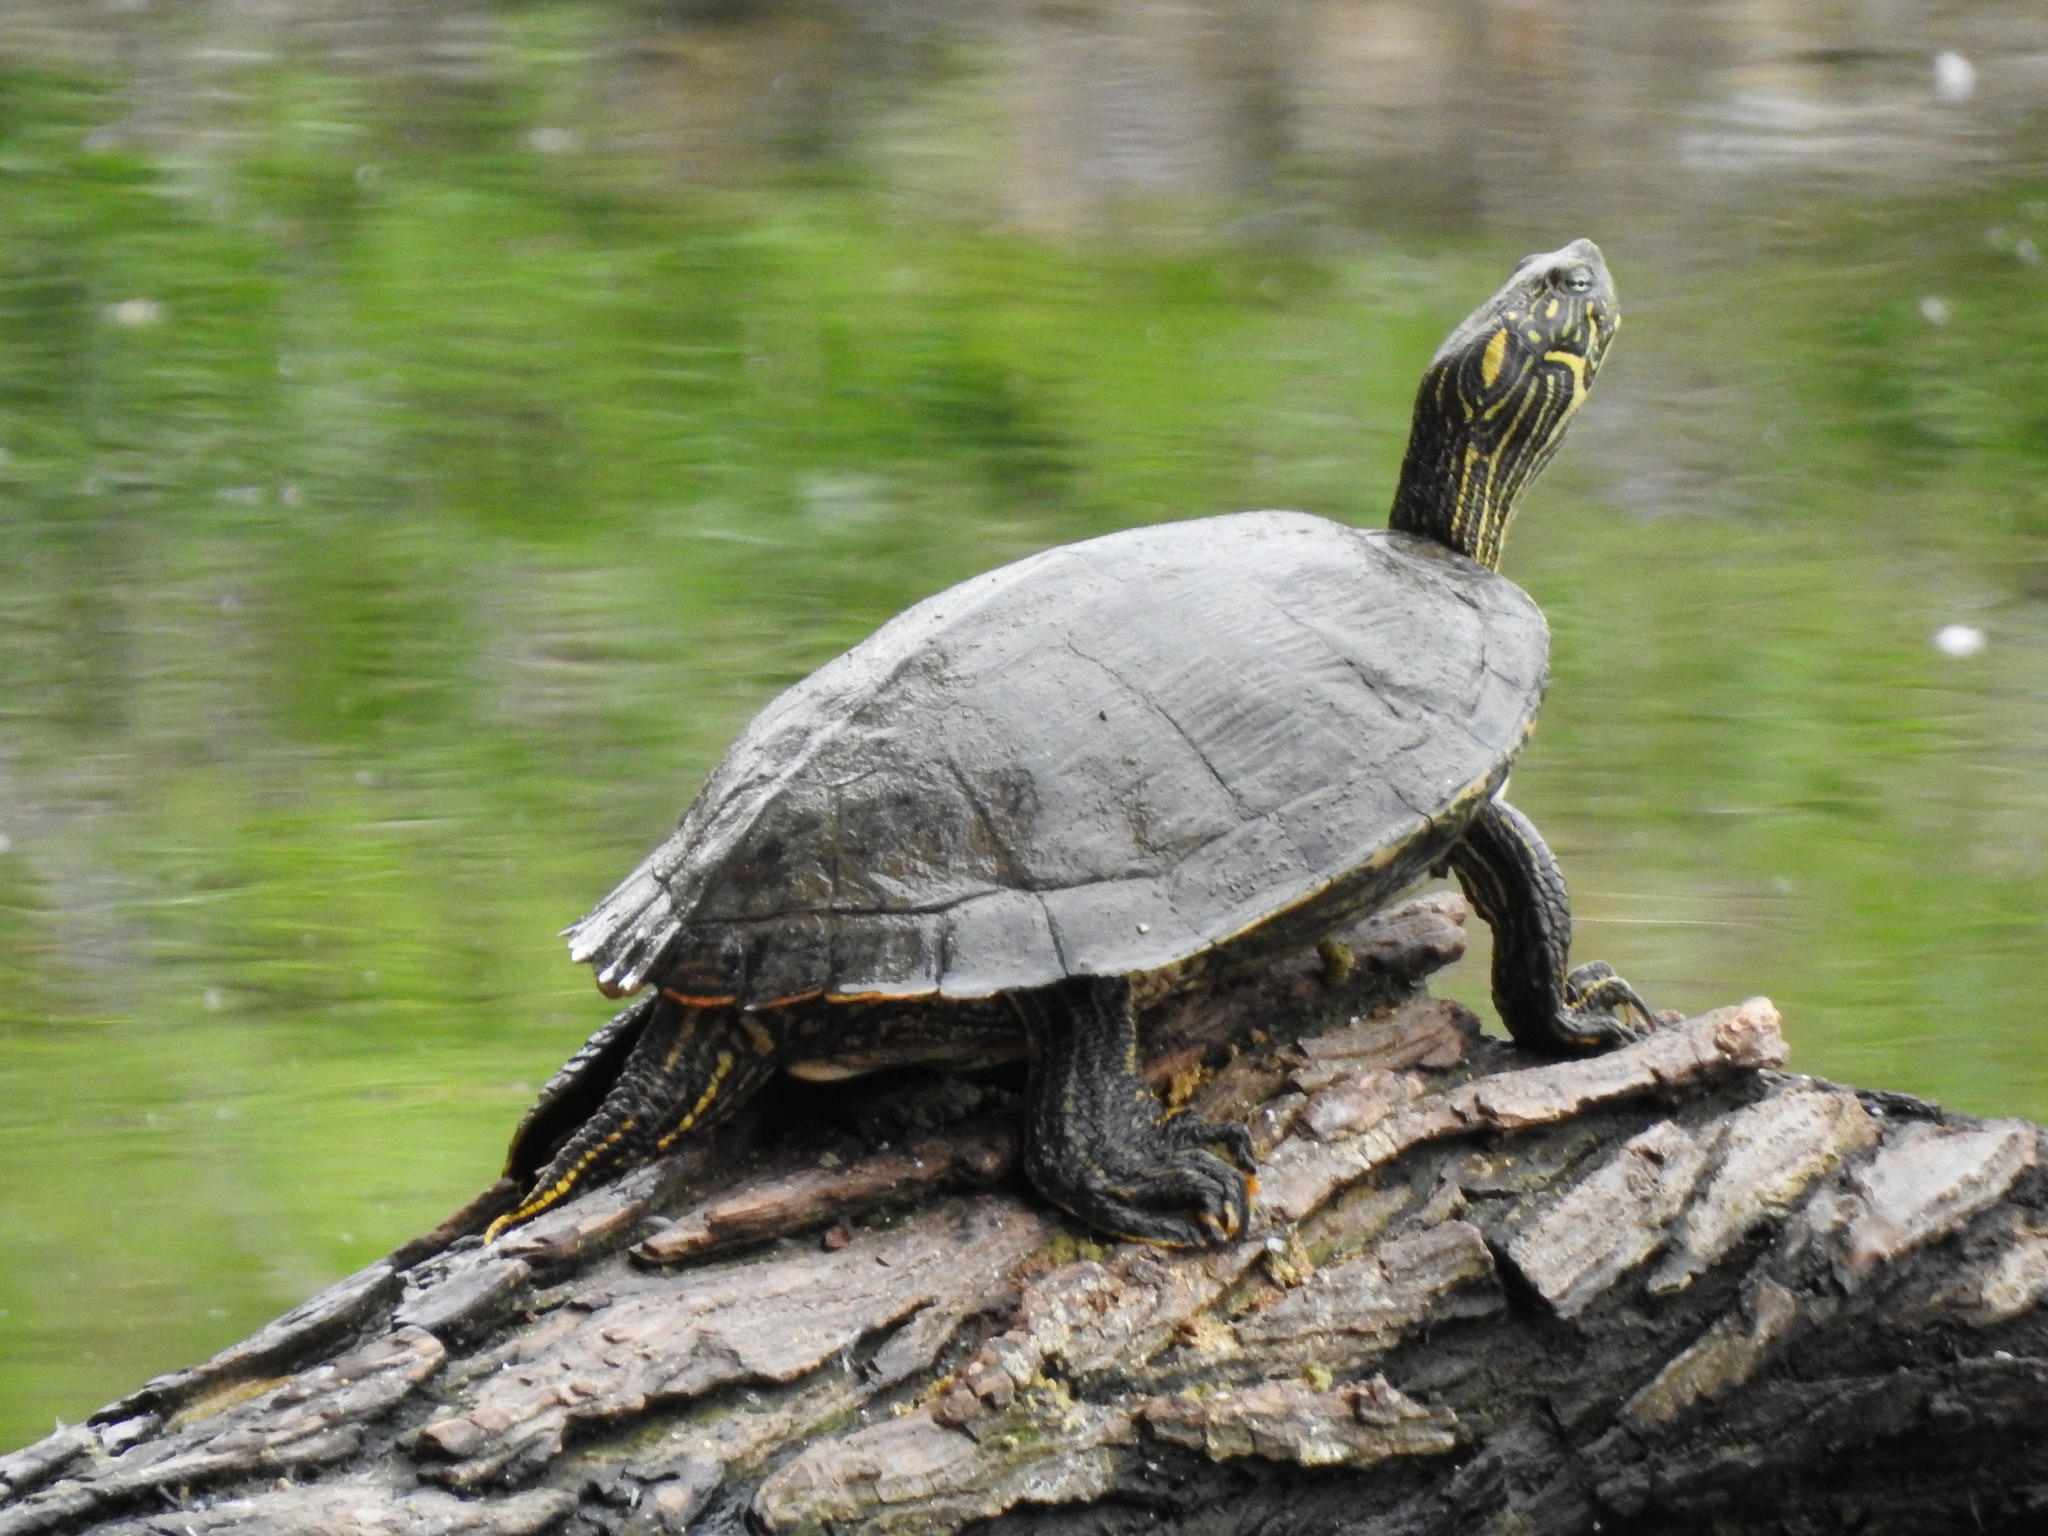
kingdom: Animalia
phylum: Chordata
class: Testudines
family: Emydidae
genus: Pseudemys
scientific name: Pseudemys texana
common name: Texas river cooter
